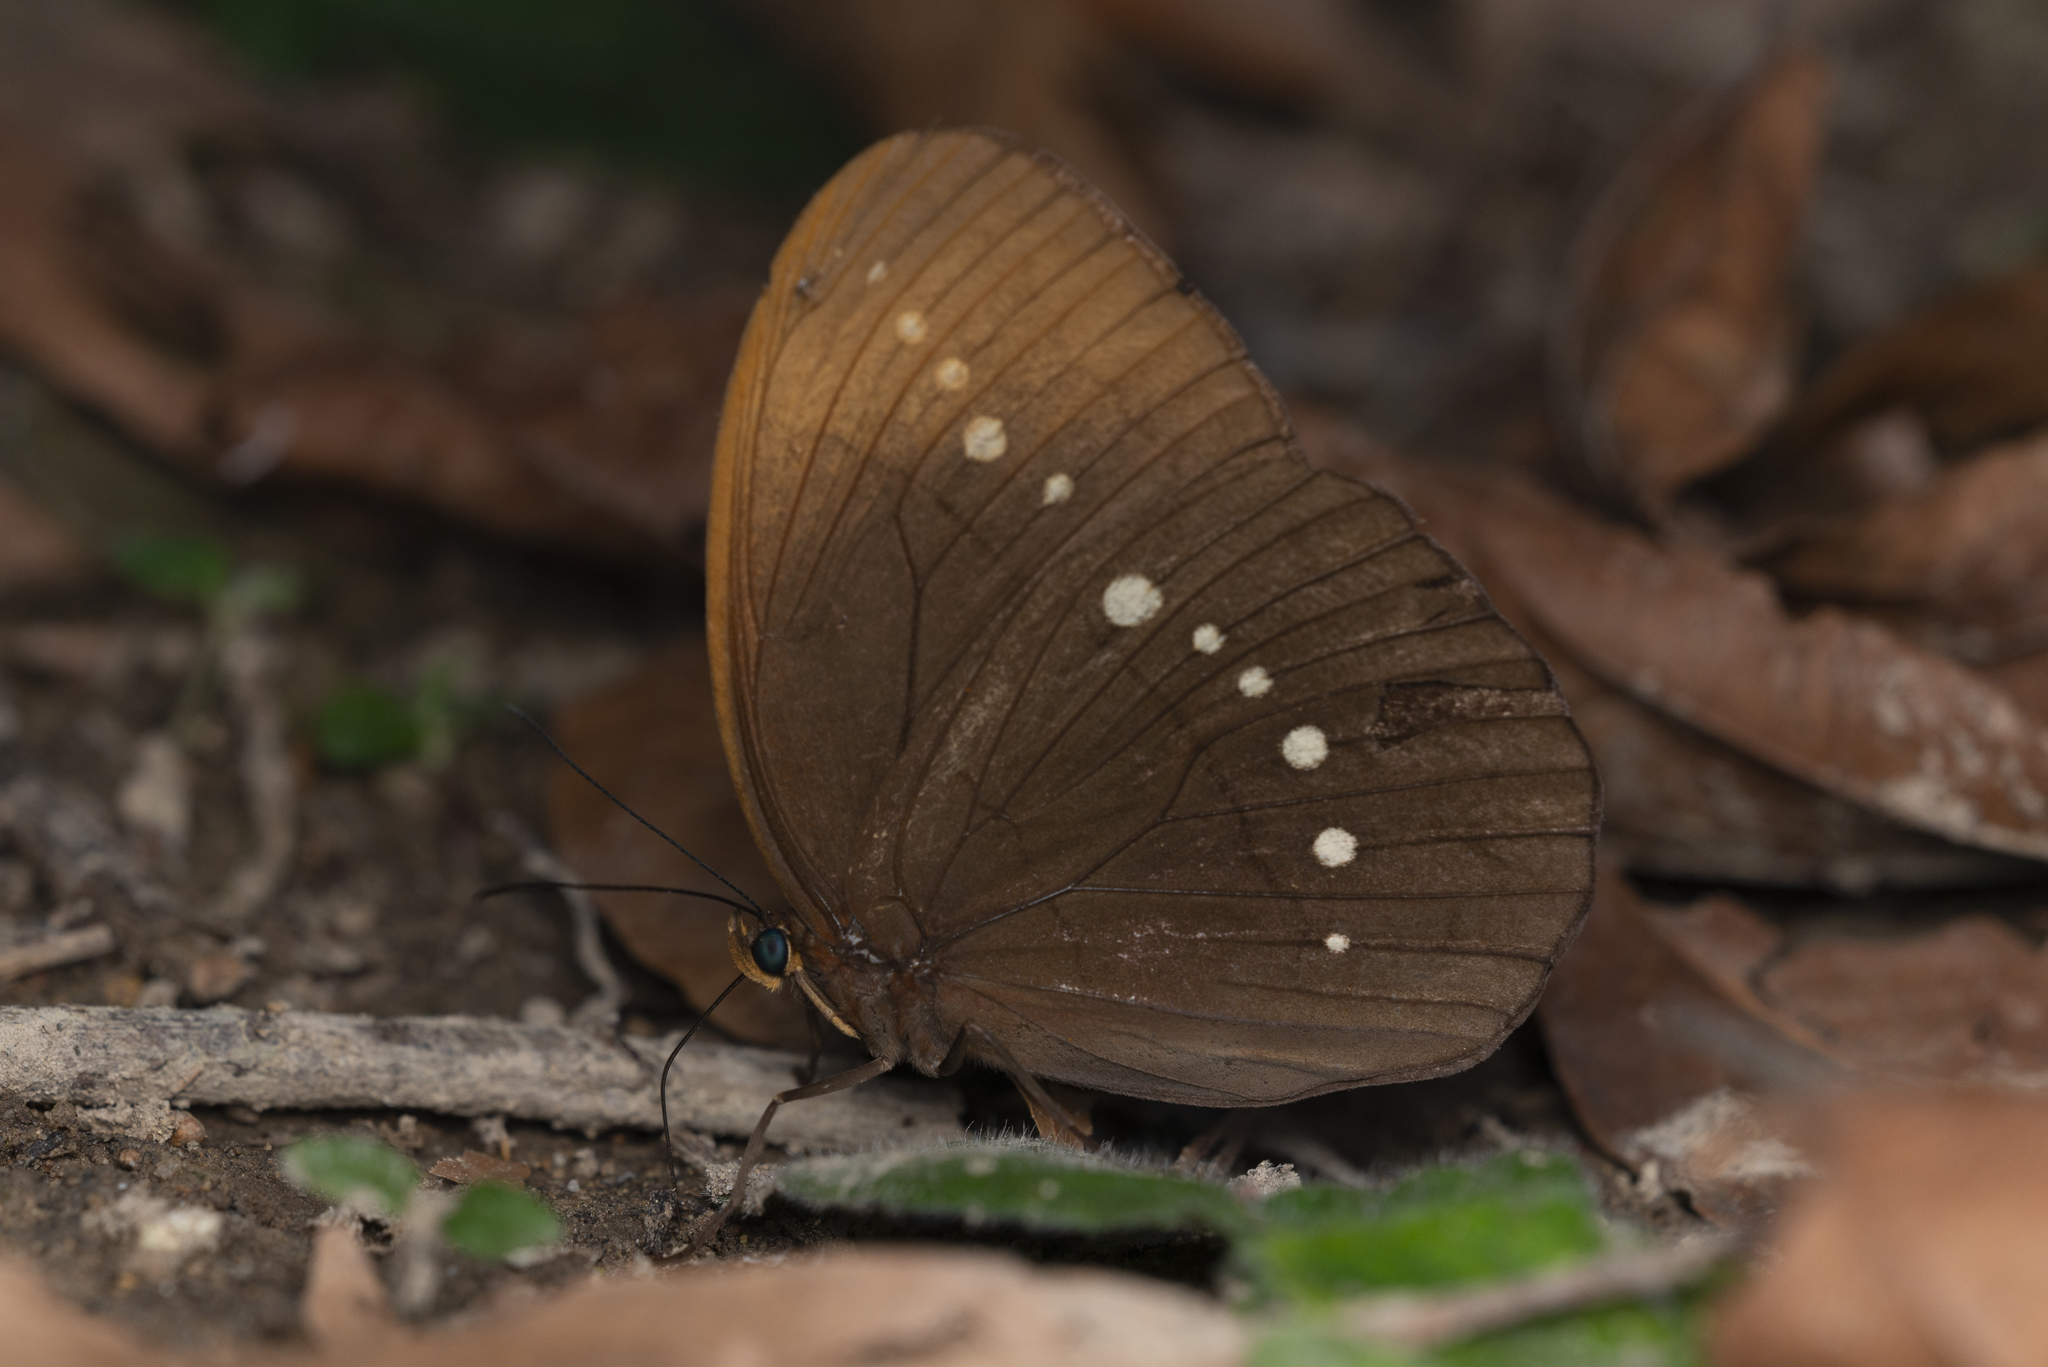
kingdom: Animalia
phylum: Arthropoda
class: Insecta
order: Lepidoptera
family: Nymphalidae
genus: Faunis
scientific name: Faunis eumeus
